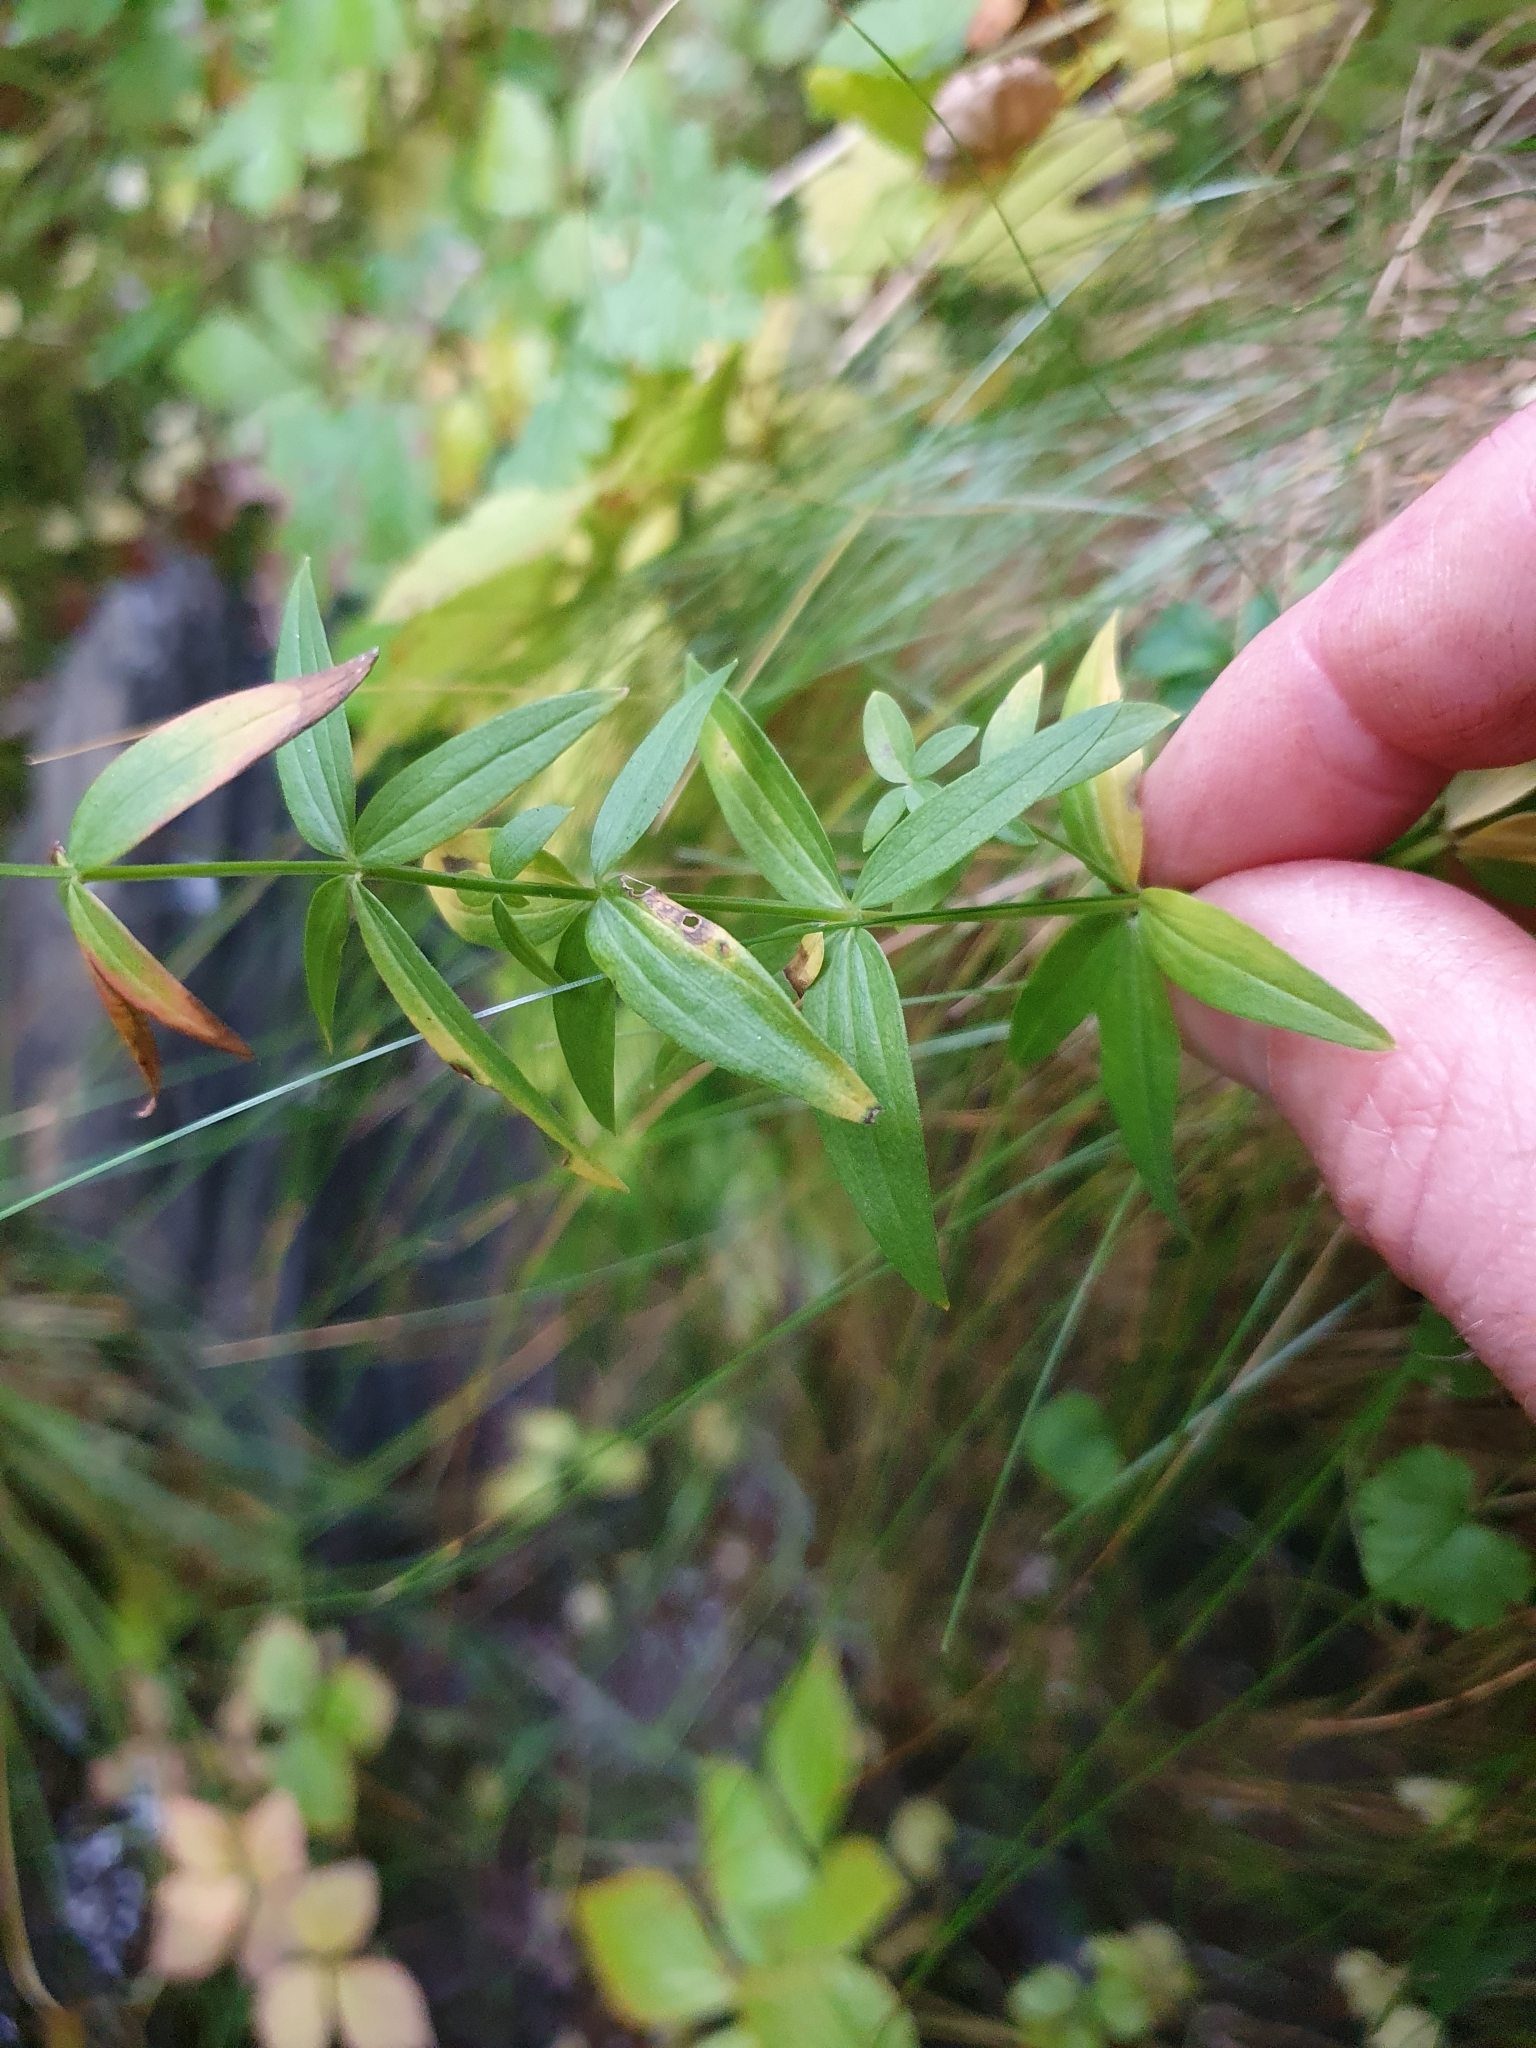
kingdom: Plantae
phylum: Tracheophyta
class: Magnoliopsida
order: Gentianales
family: Rubiaceae
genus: Galium
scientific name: Galium boreale
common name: Northern bedstraw
